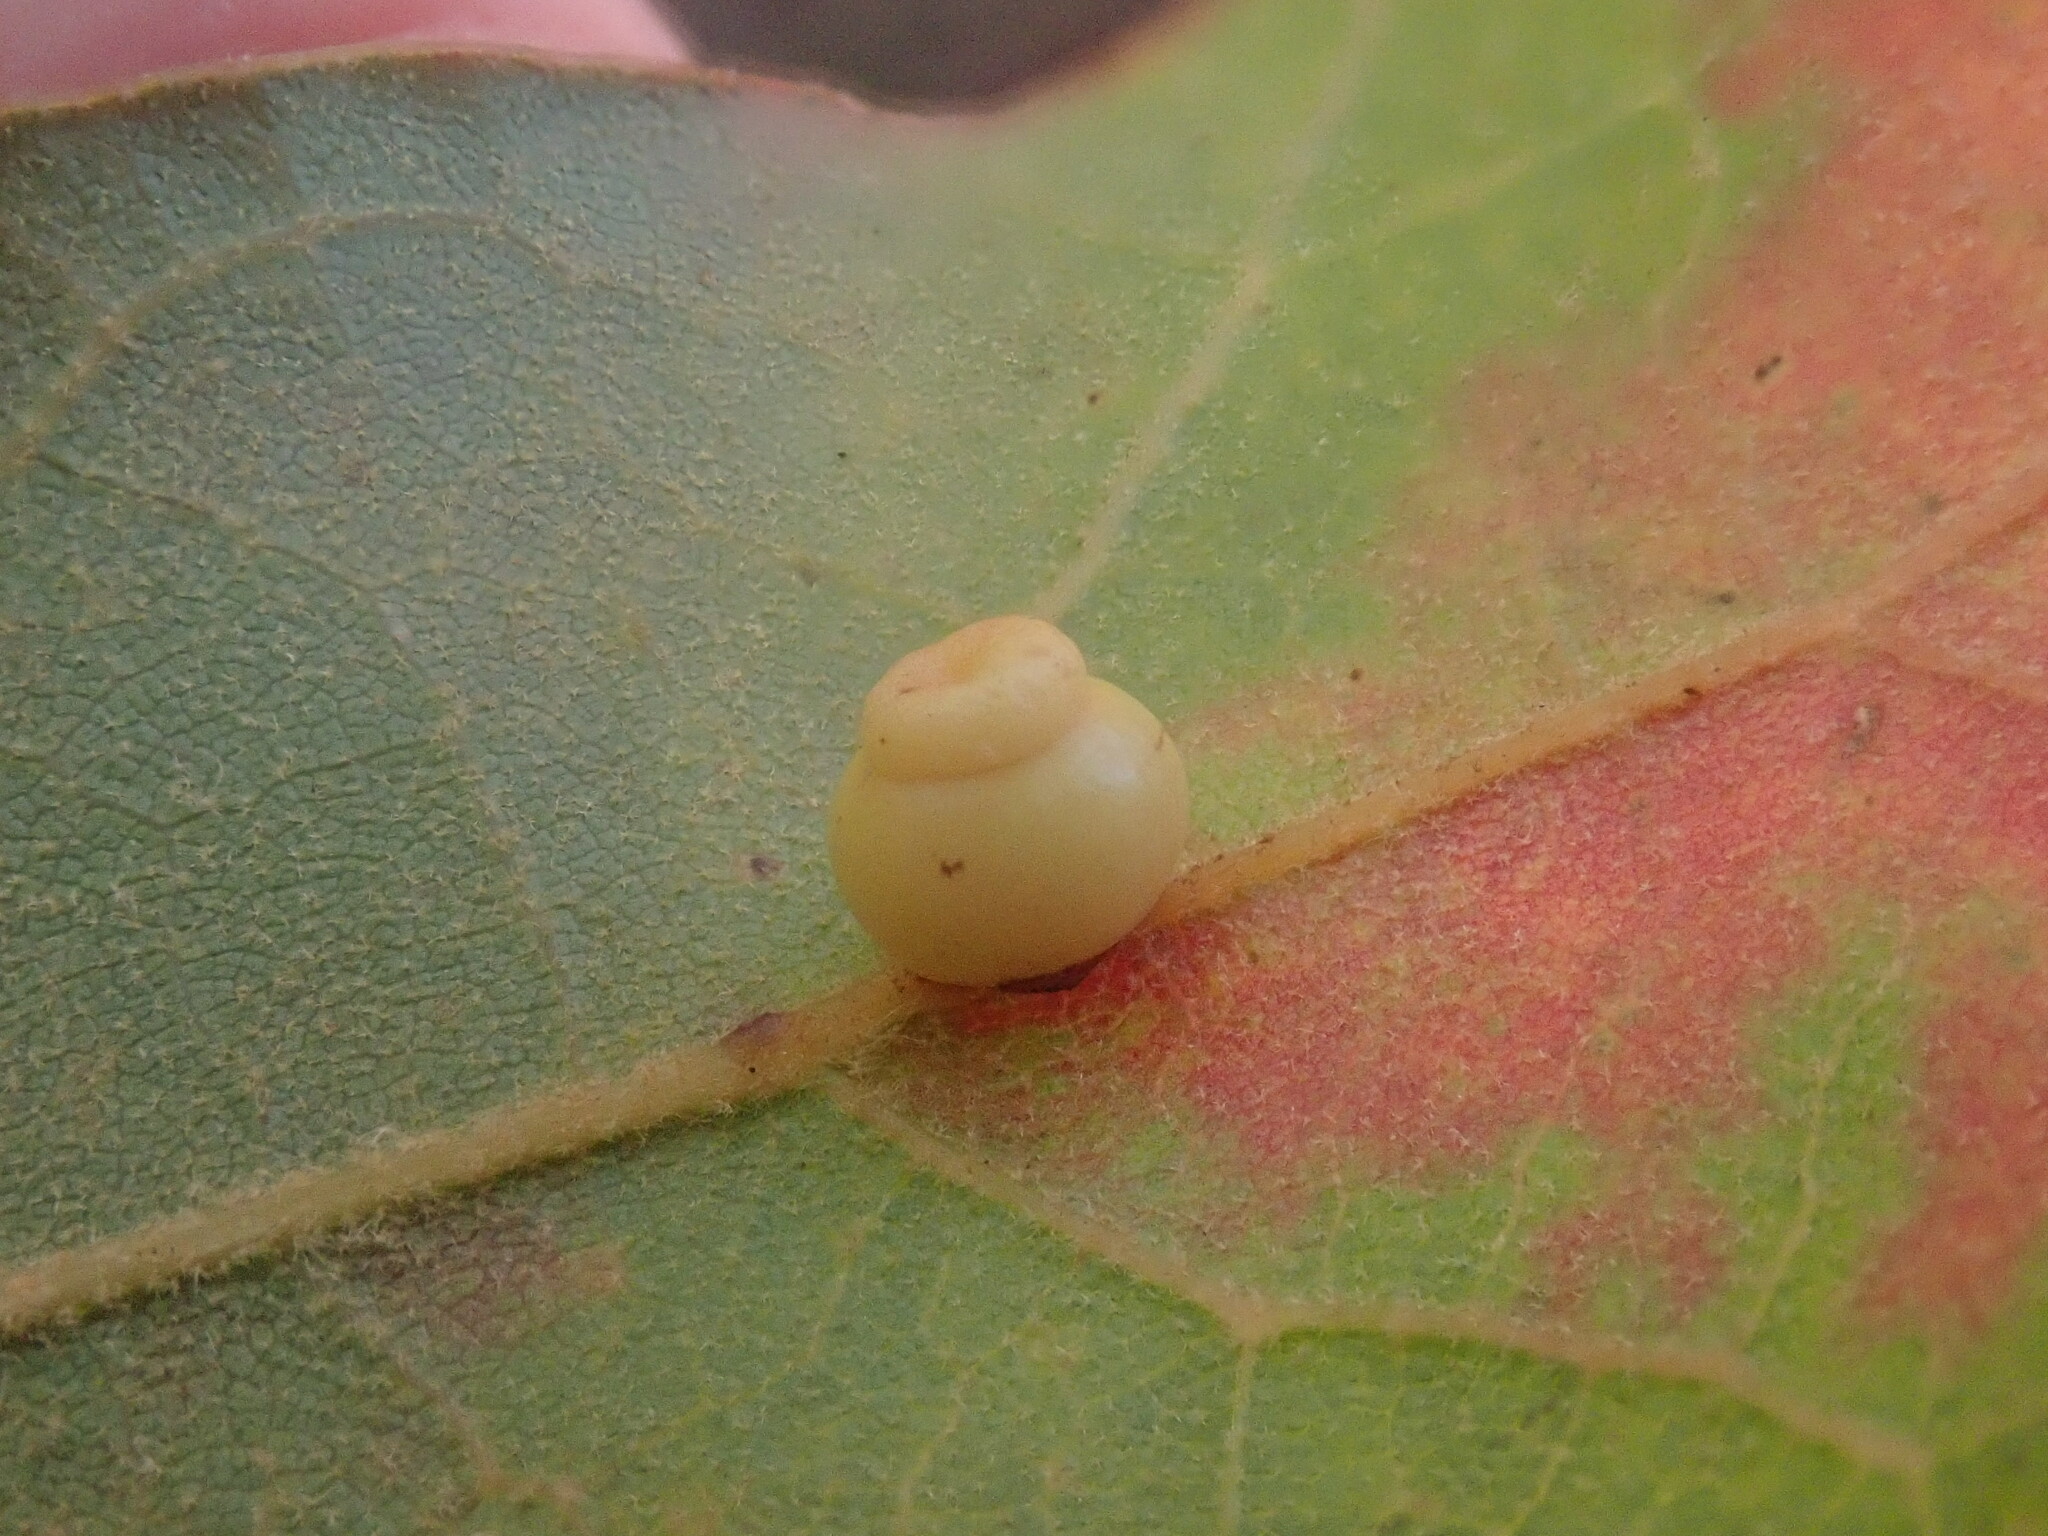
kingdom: Animalia
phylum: Arthropoda
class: Insecta
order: Hymenoptera
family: Cynipidae
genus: Kokkocynips
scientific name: Kokkocynips rileyi
